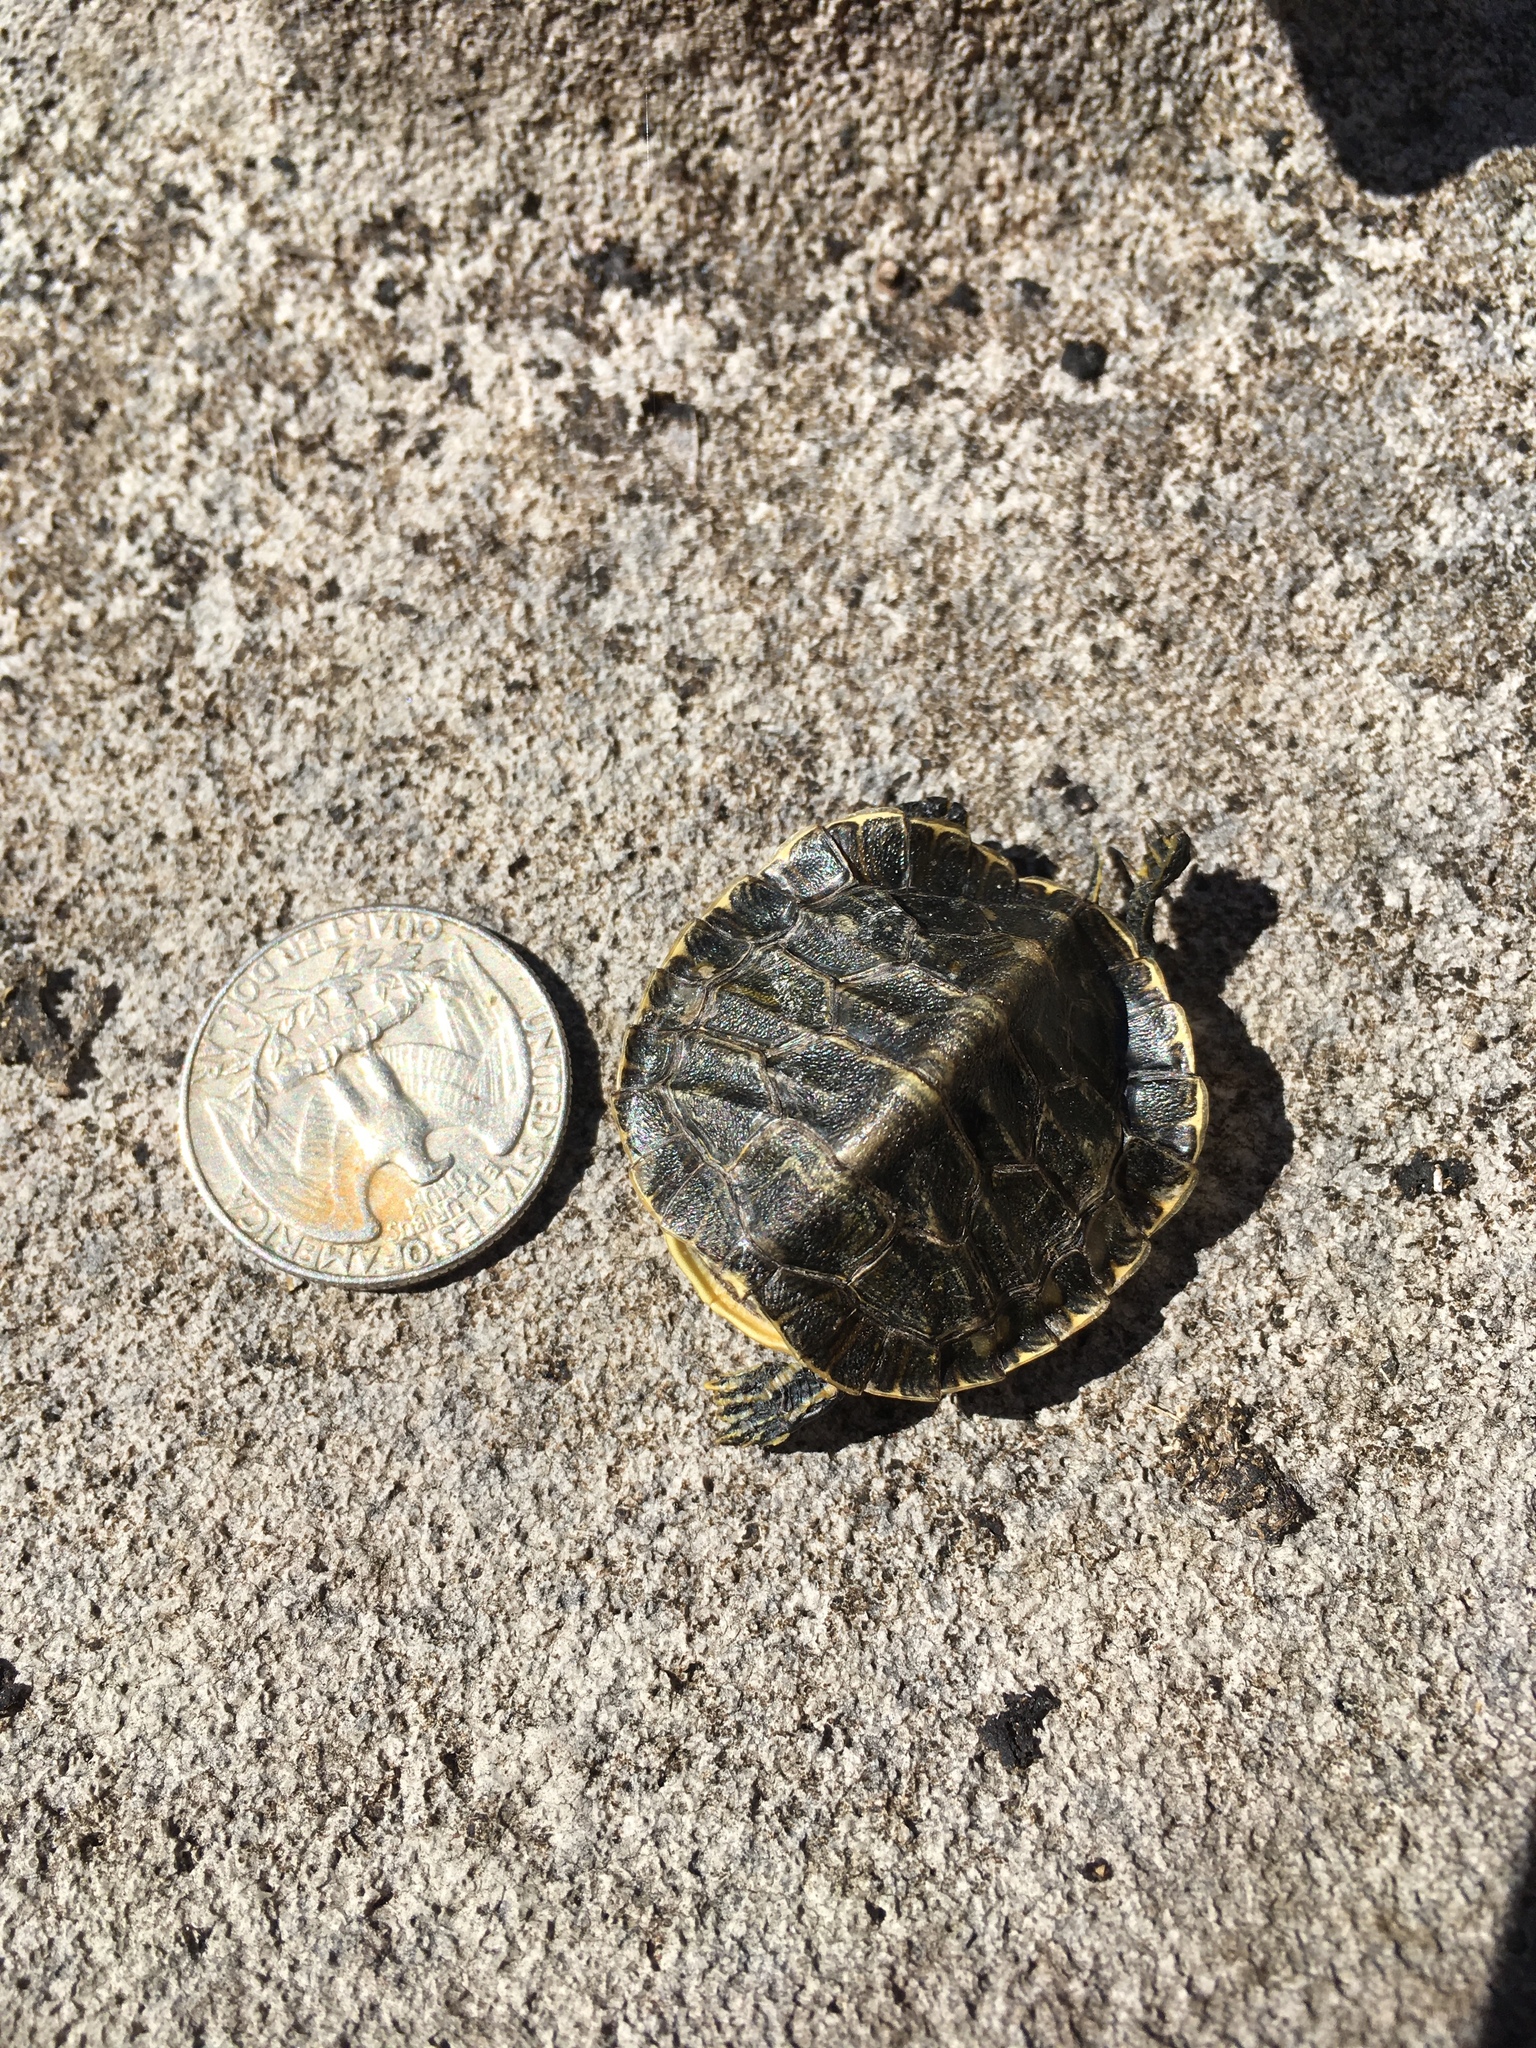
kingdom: Animalia
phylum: Chordata
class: Testudines
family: Emydidae
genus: Trachemys
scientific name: Trachemys scripta
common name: Slider
